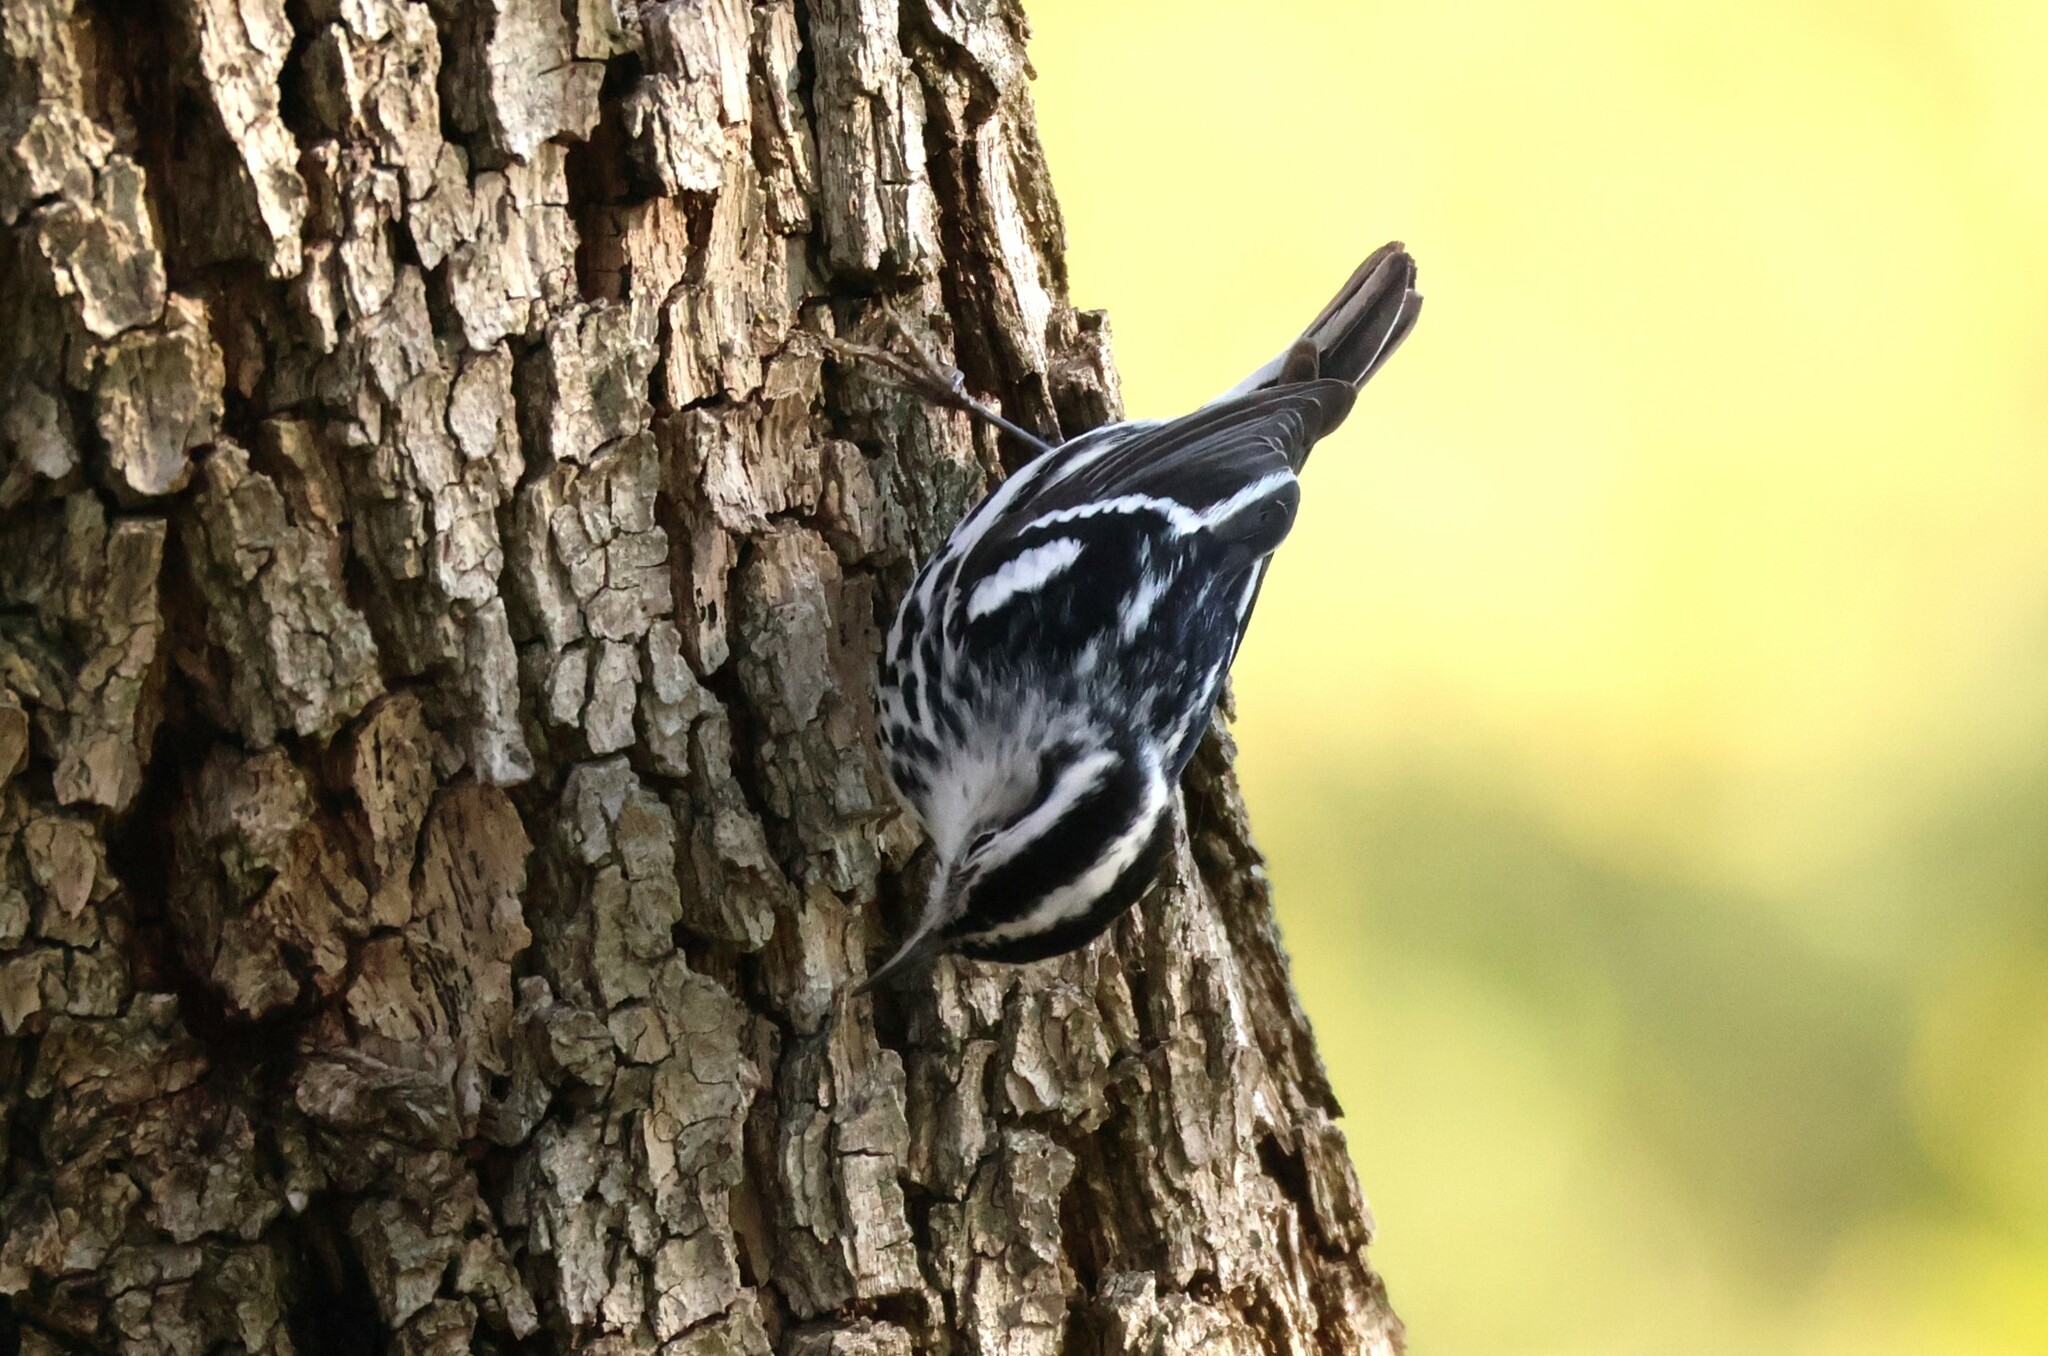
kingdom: Animalia
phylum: Chordata
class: Aves
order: Passeriformes
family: Parulidae
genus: Mniotilta
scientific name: Mniotilta varia
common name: Black-and-white warbler
